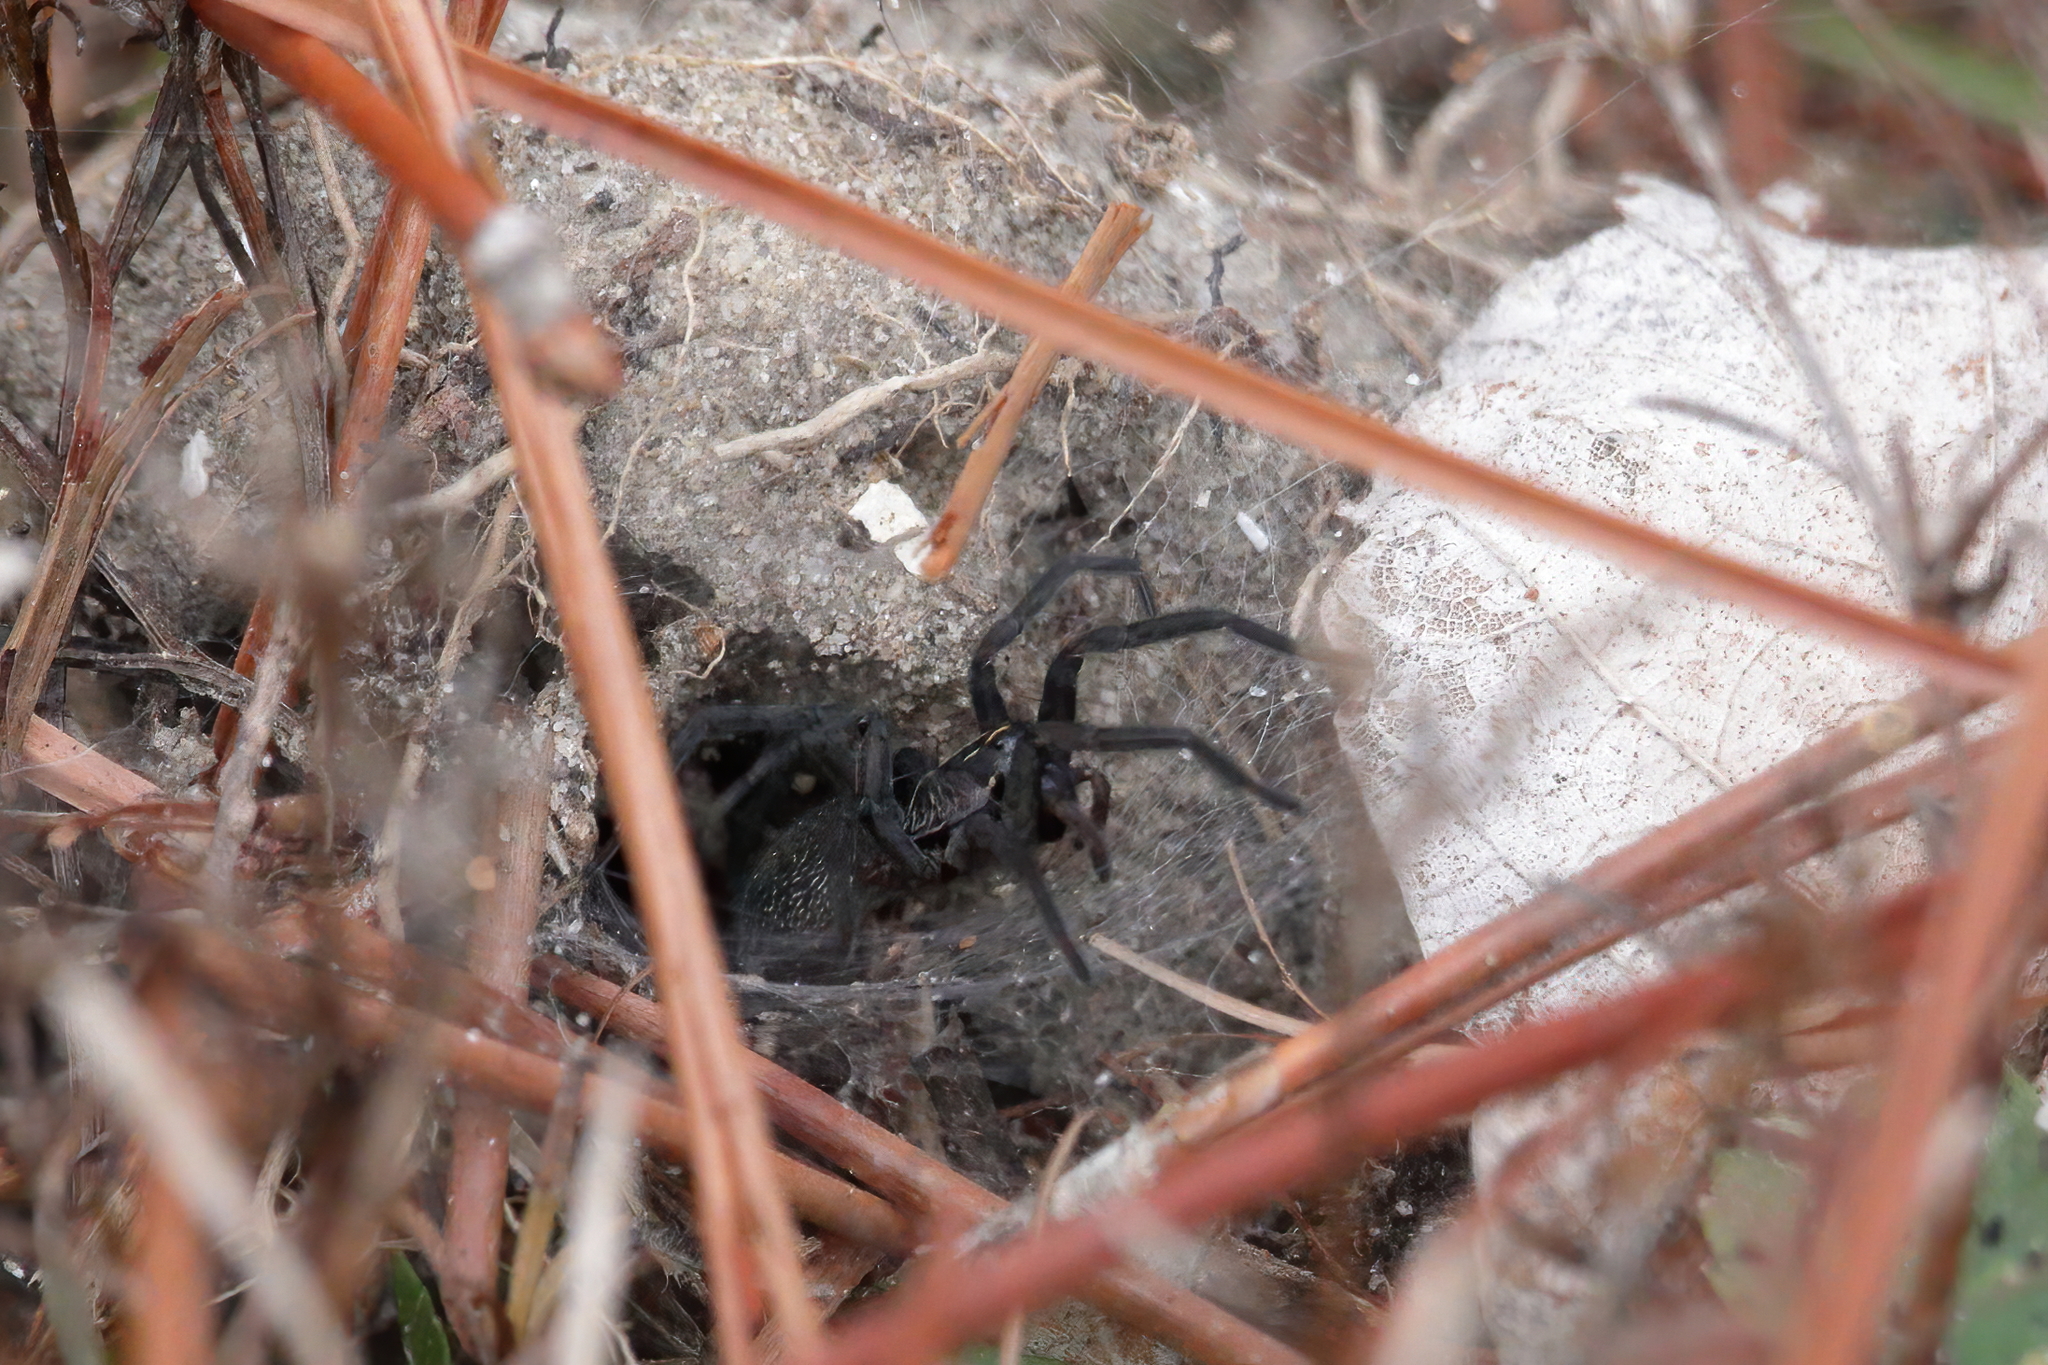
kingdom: Animalia
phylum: Arthropoda
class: Arachnida
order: Araneae
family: Lycosidae
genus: Sosippus
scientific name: Sosippus mimus
